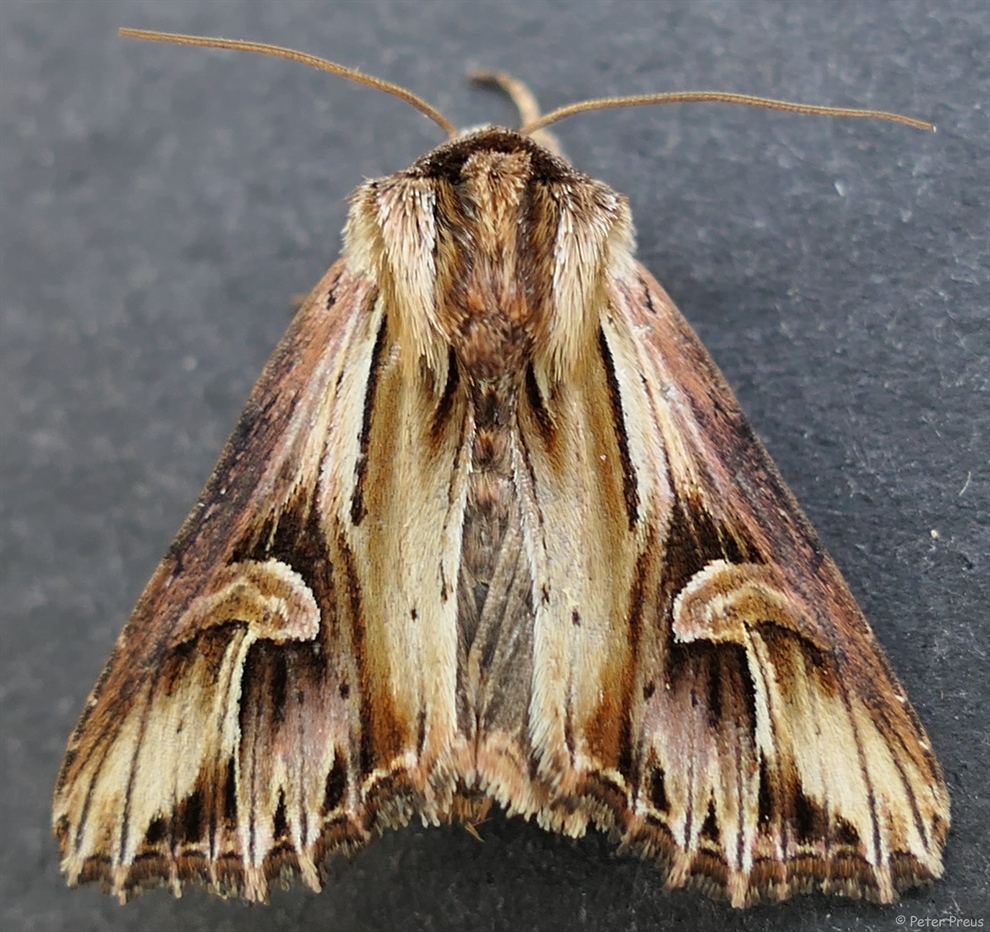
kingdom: Animalia
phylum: Arthropoda
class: Insecta
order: Lepidoptera
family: Noctuidae
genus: Actinotia
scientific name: Actinotia polyodon
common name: Purple cloud
